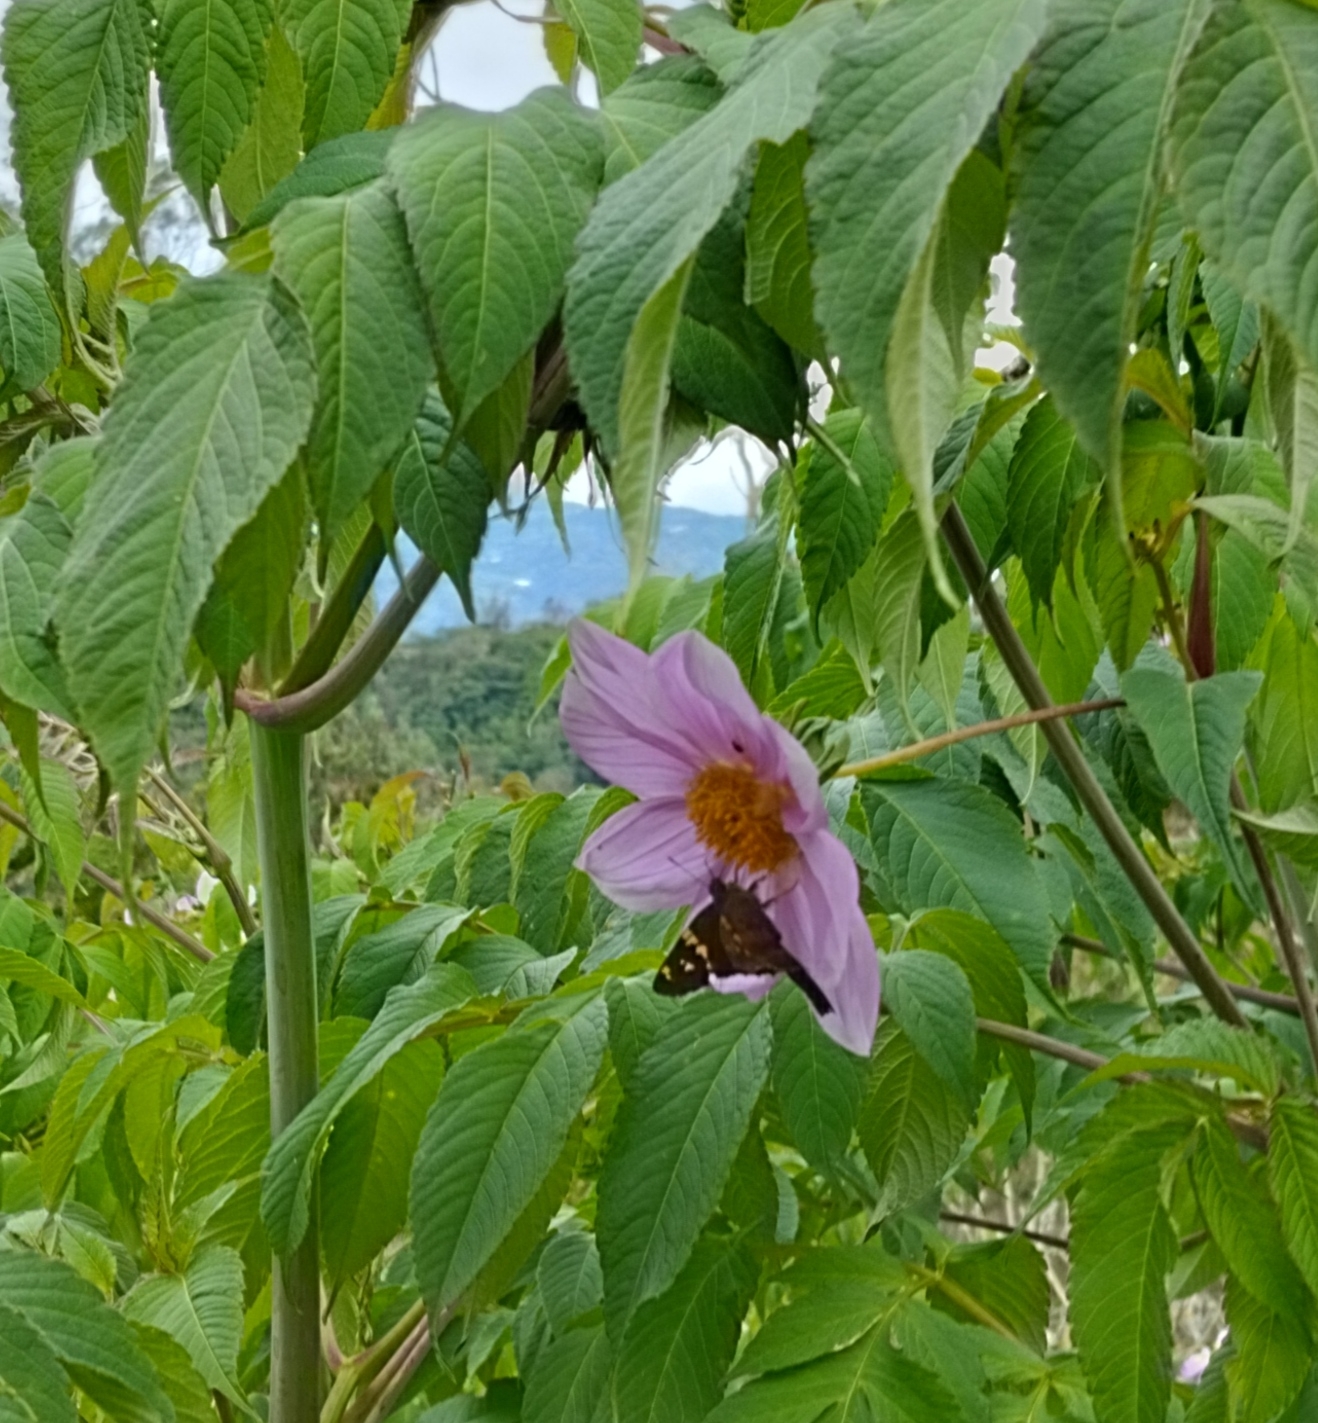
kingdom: Plantae
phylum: Tracheophyta
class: Magnoliopsida
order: Asterales
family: Asteraceae
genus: Dahlia
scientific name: Dahlia imperialis
